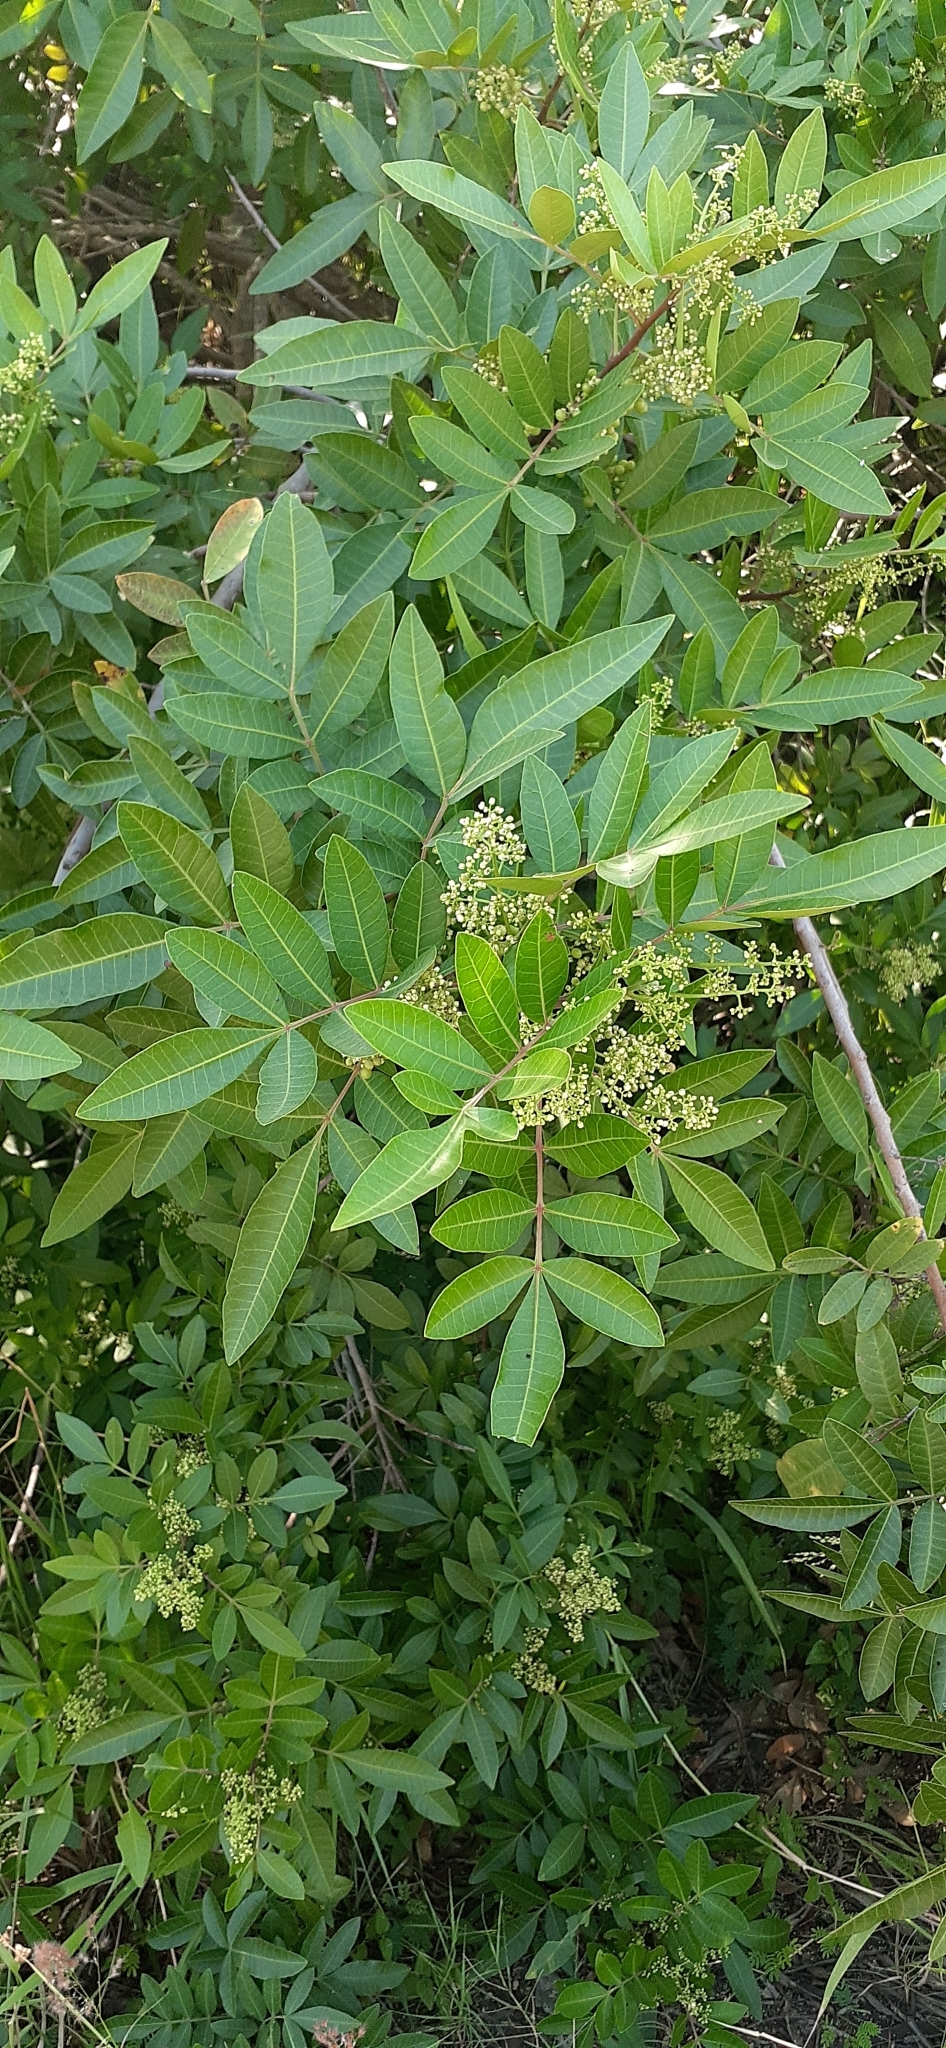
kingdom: Plantae
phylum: Tracheophyta
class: Magnoliopsida
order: Sapindales
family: Anacardiaceae
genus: Schinus
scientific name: Schinus terebinthifolia
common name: Brazilian peppertree
